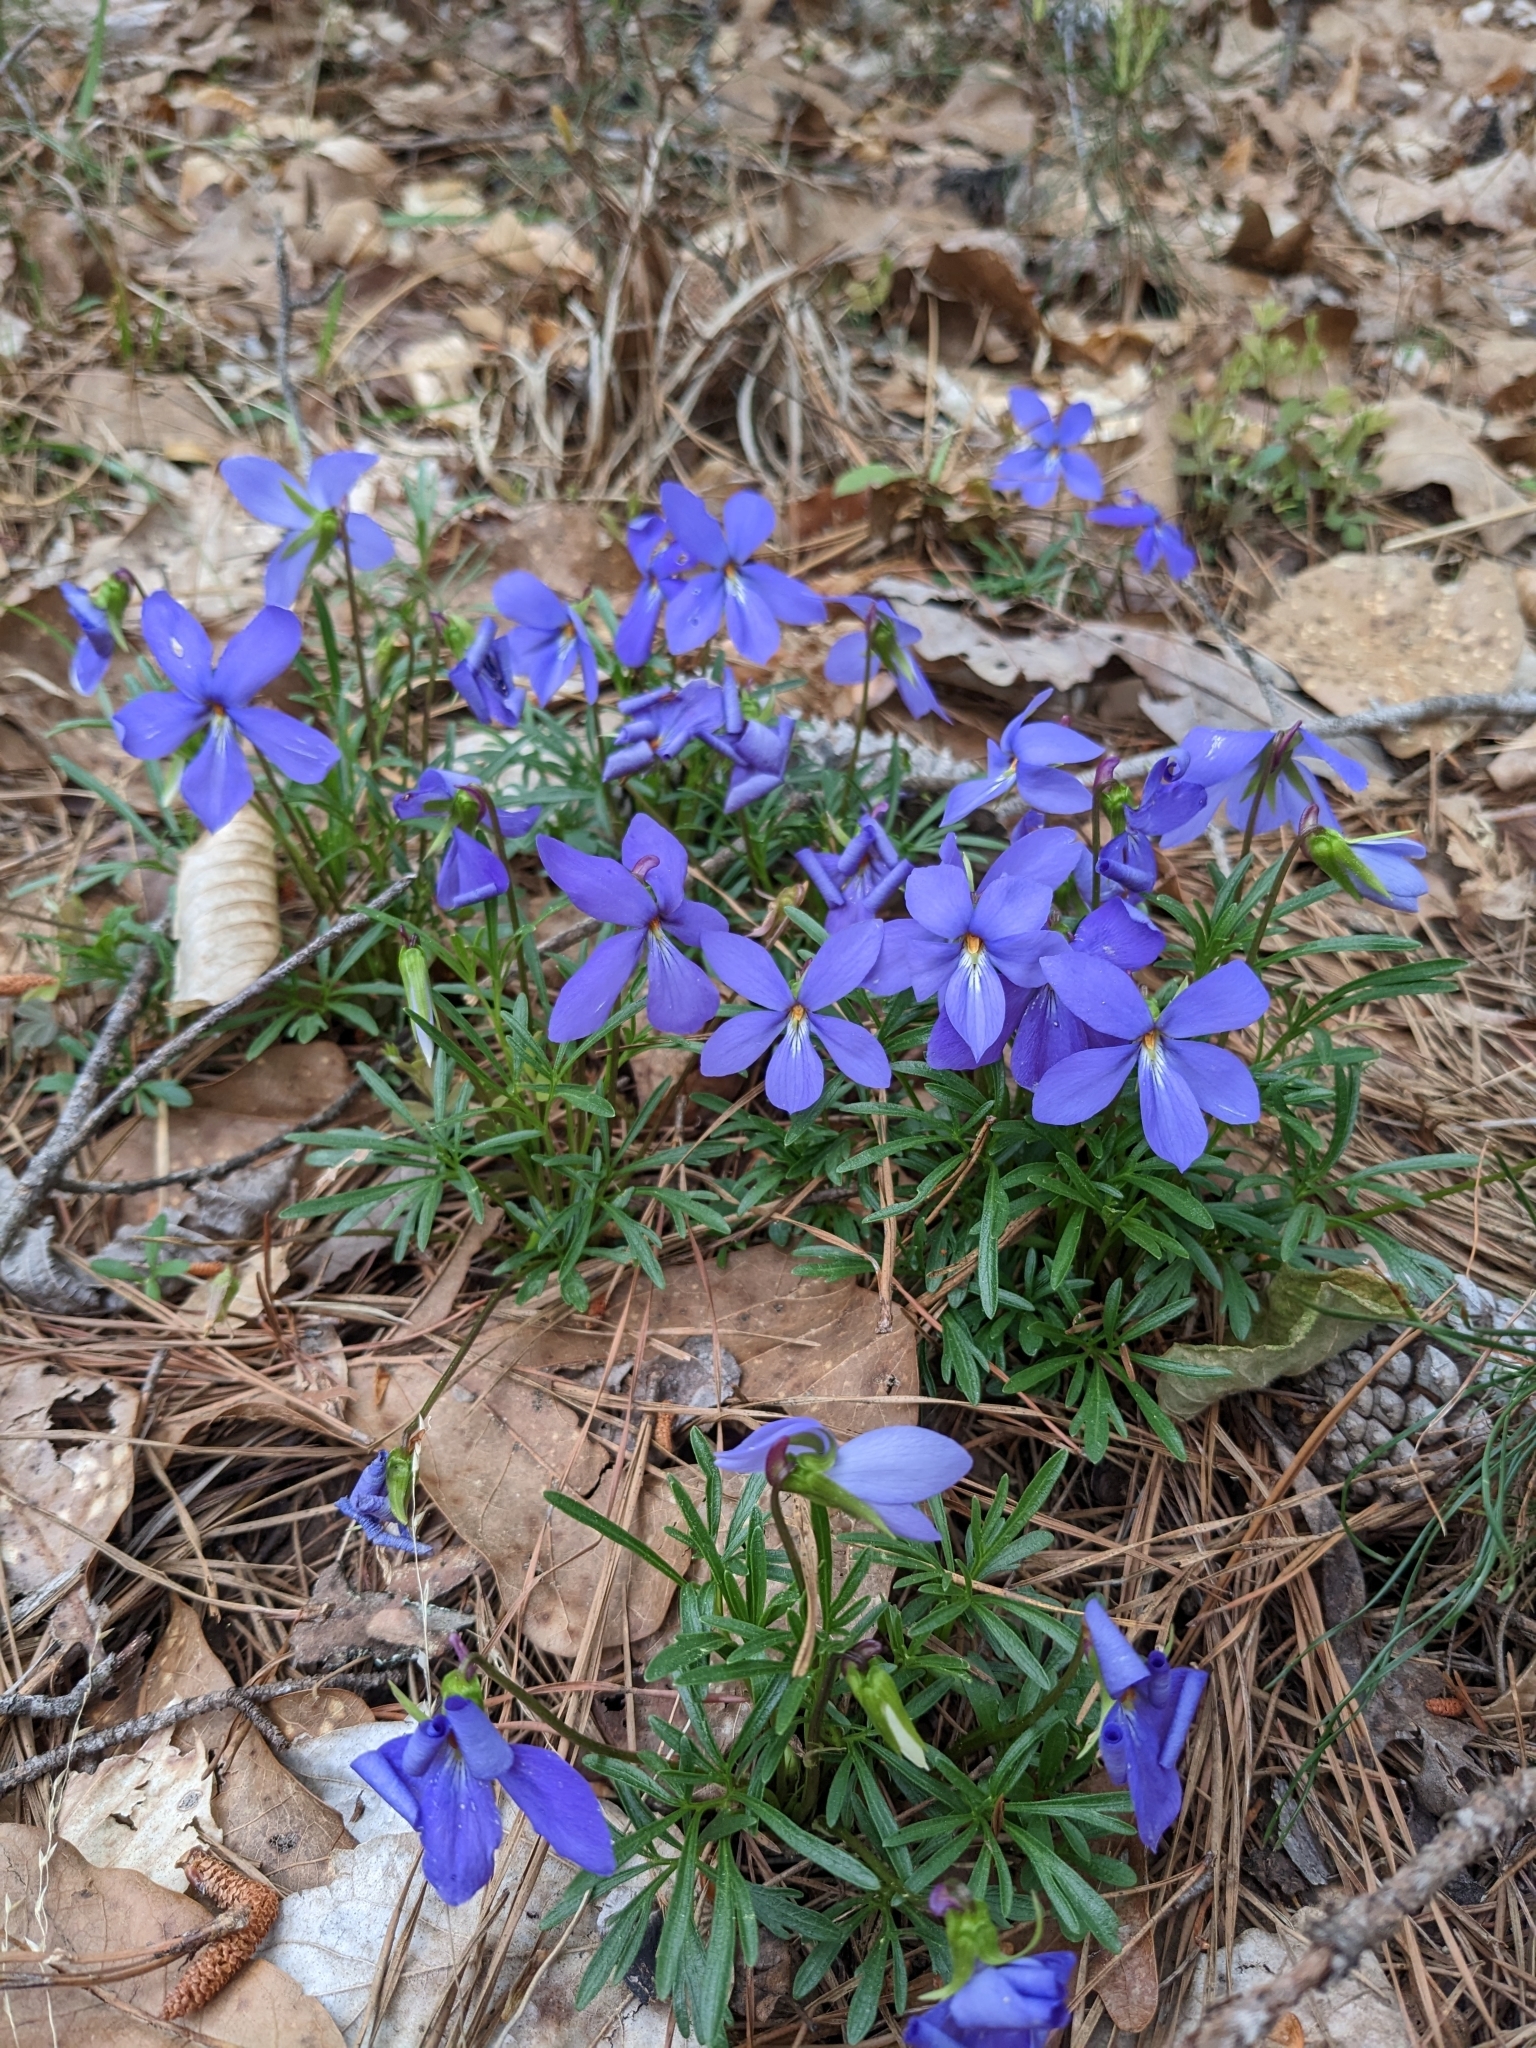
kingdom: Plantae
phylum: Tracheophyta
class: Magnoliopsida
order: Malpighiales
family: Violaceae
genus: Viola
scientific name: Viola pedata
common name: Pansy violet
